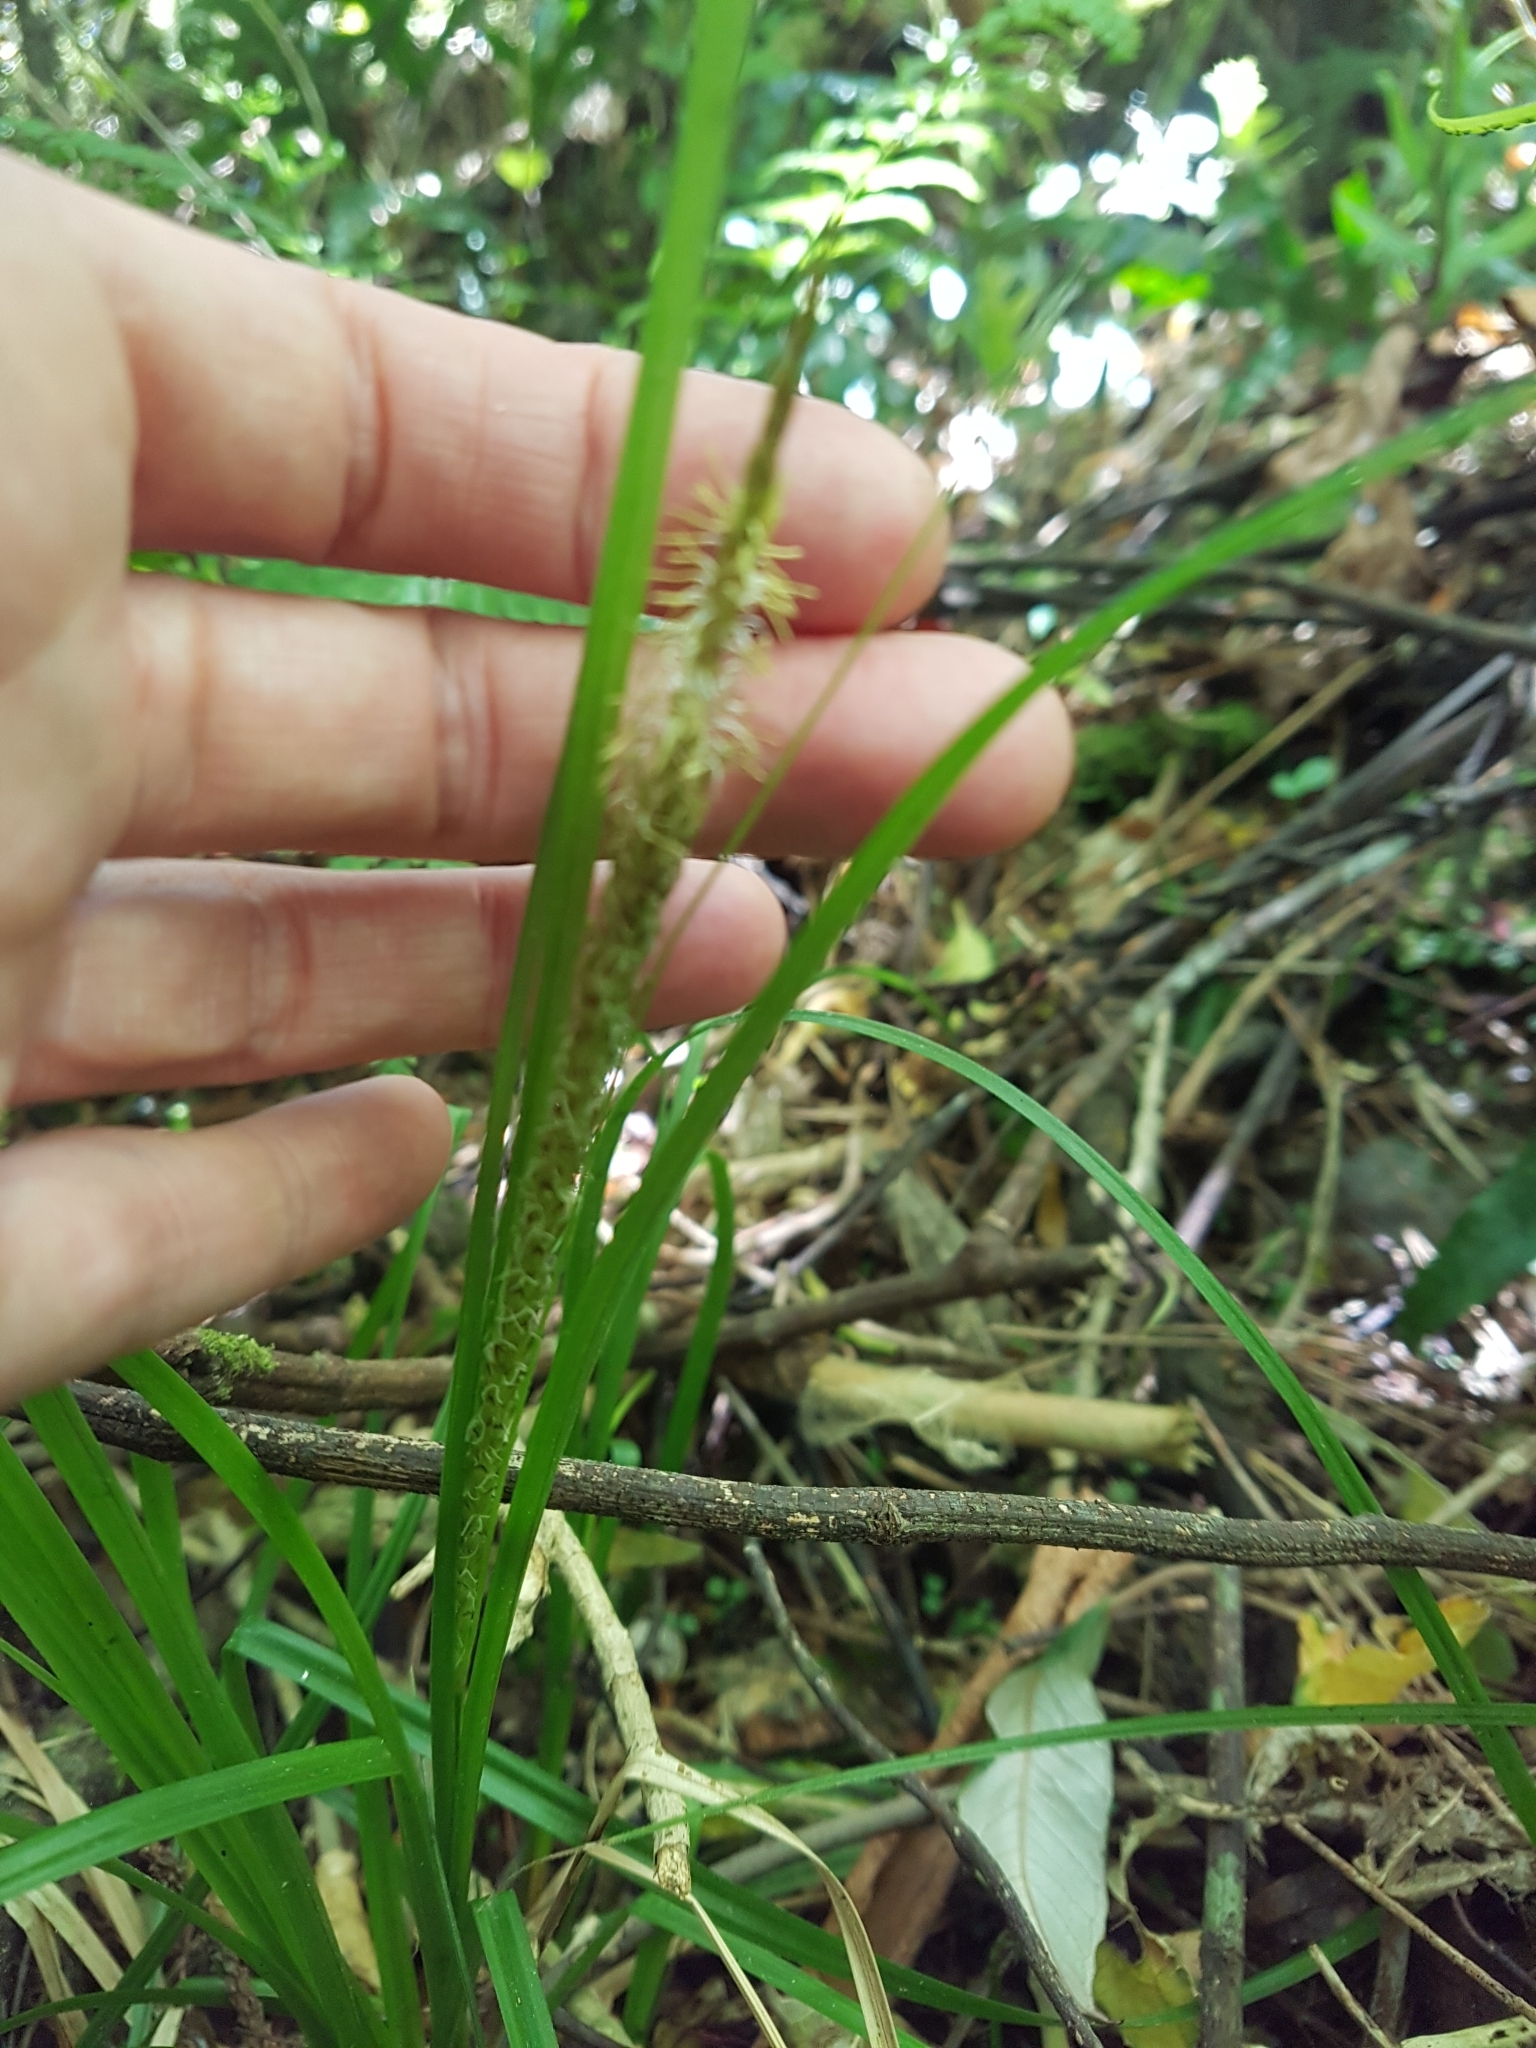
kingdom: Plantae
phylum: Tracheophyta
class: Liliopsida
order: Poales
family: Cyperaceae
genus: Carex
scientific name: Carex uncinata
